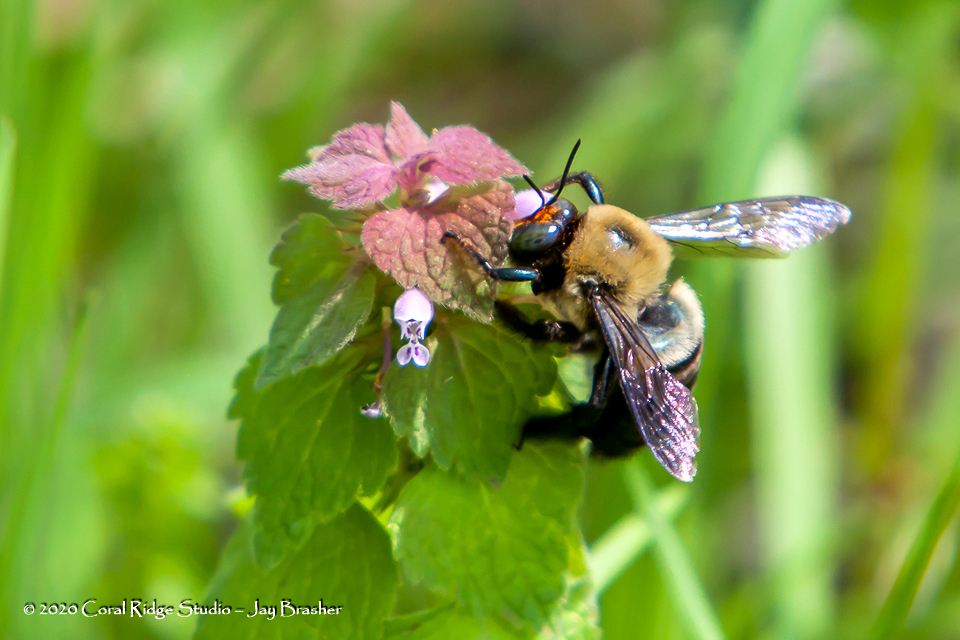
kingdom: Plantae
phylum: Tracheophyta
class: Magnoliopsida
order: Lamiales
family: Lamiaceae
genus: Lamium
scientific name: Lamium purpureum
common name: Red dead-nettle
